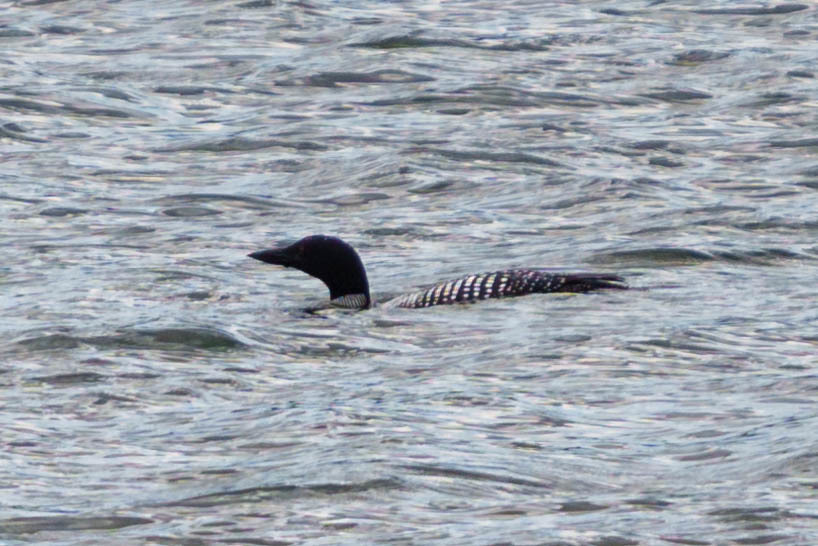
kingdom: Animalia
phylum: Chordata
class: Aves
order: Gaviiformes
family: Gaviidae
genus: Gavia
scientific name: Gavia immer
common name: Common loon
